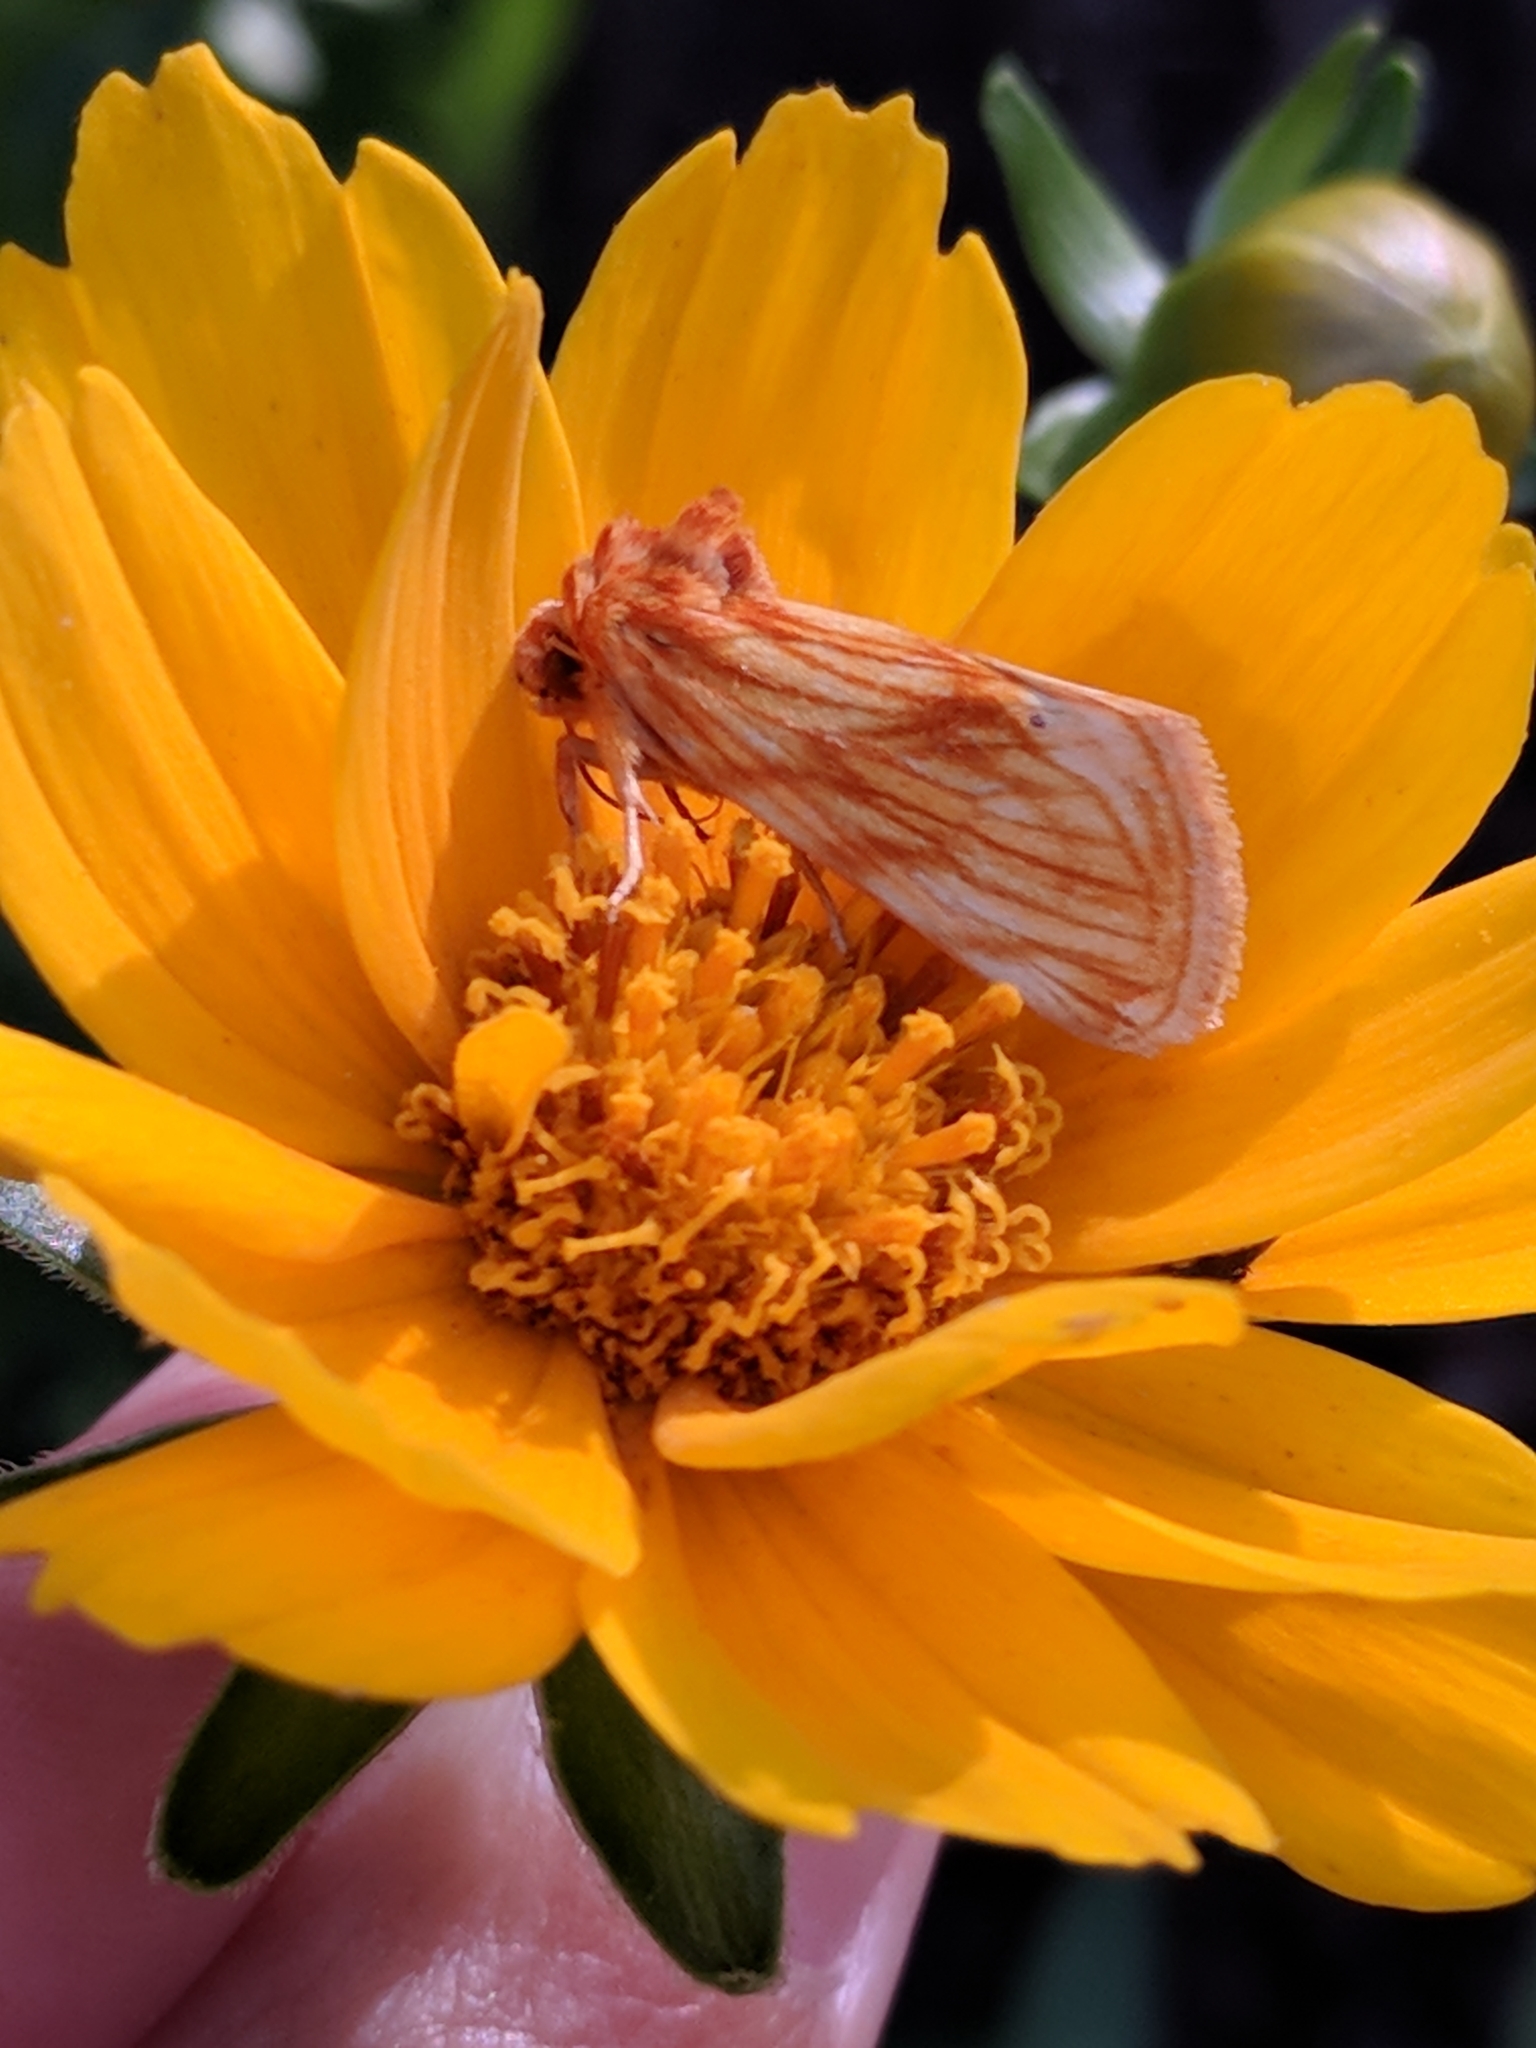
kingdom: Animalia
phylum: Arthropoda
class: Insecta
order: Lepidoptera
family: Noctuidae
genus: Cirrhophanus
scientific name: Cirrhophanus pretiosa
